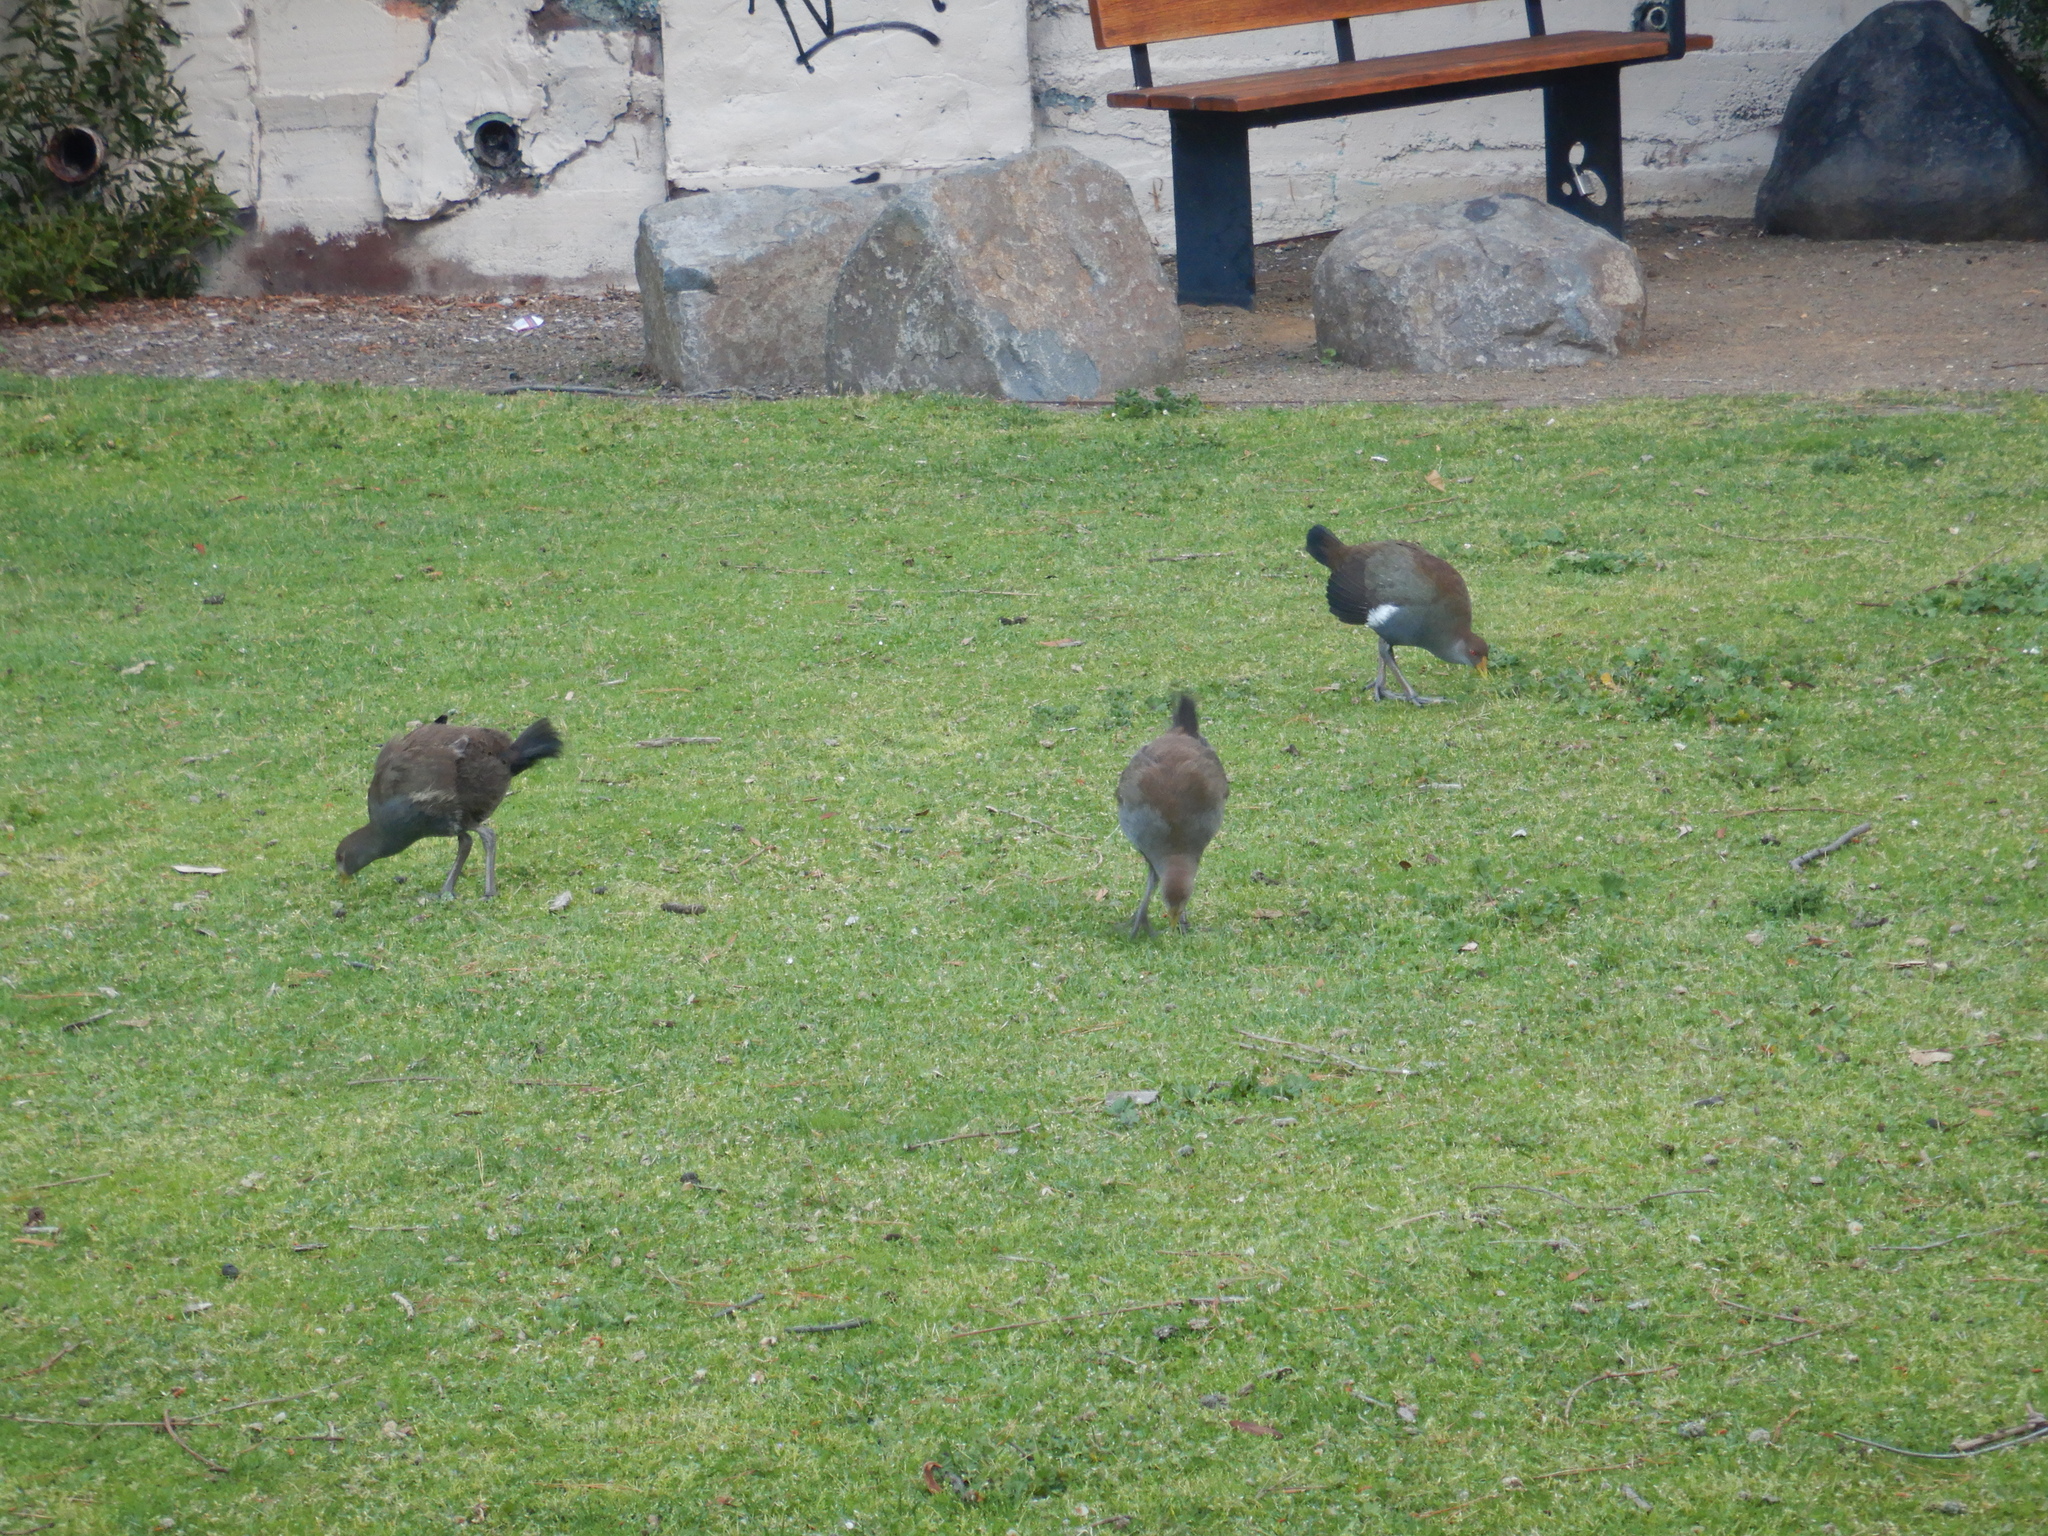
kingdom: Animalia
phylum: Chordata
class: Aves
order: Gruiformes
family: Rallidae
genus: Gallinula
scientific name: Gallinula mortierii
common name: Tasmanian nativehen
